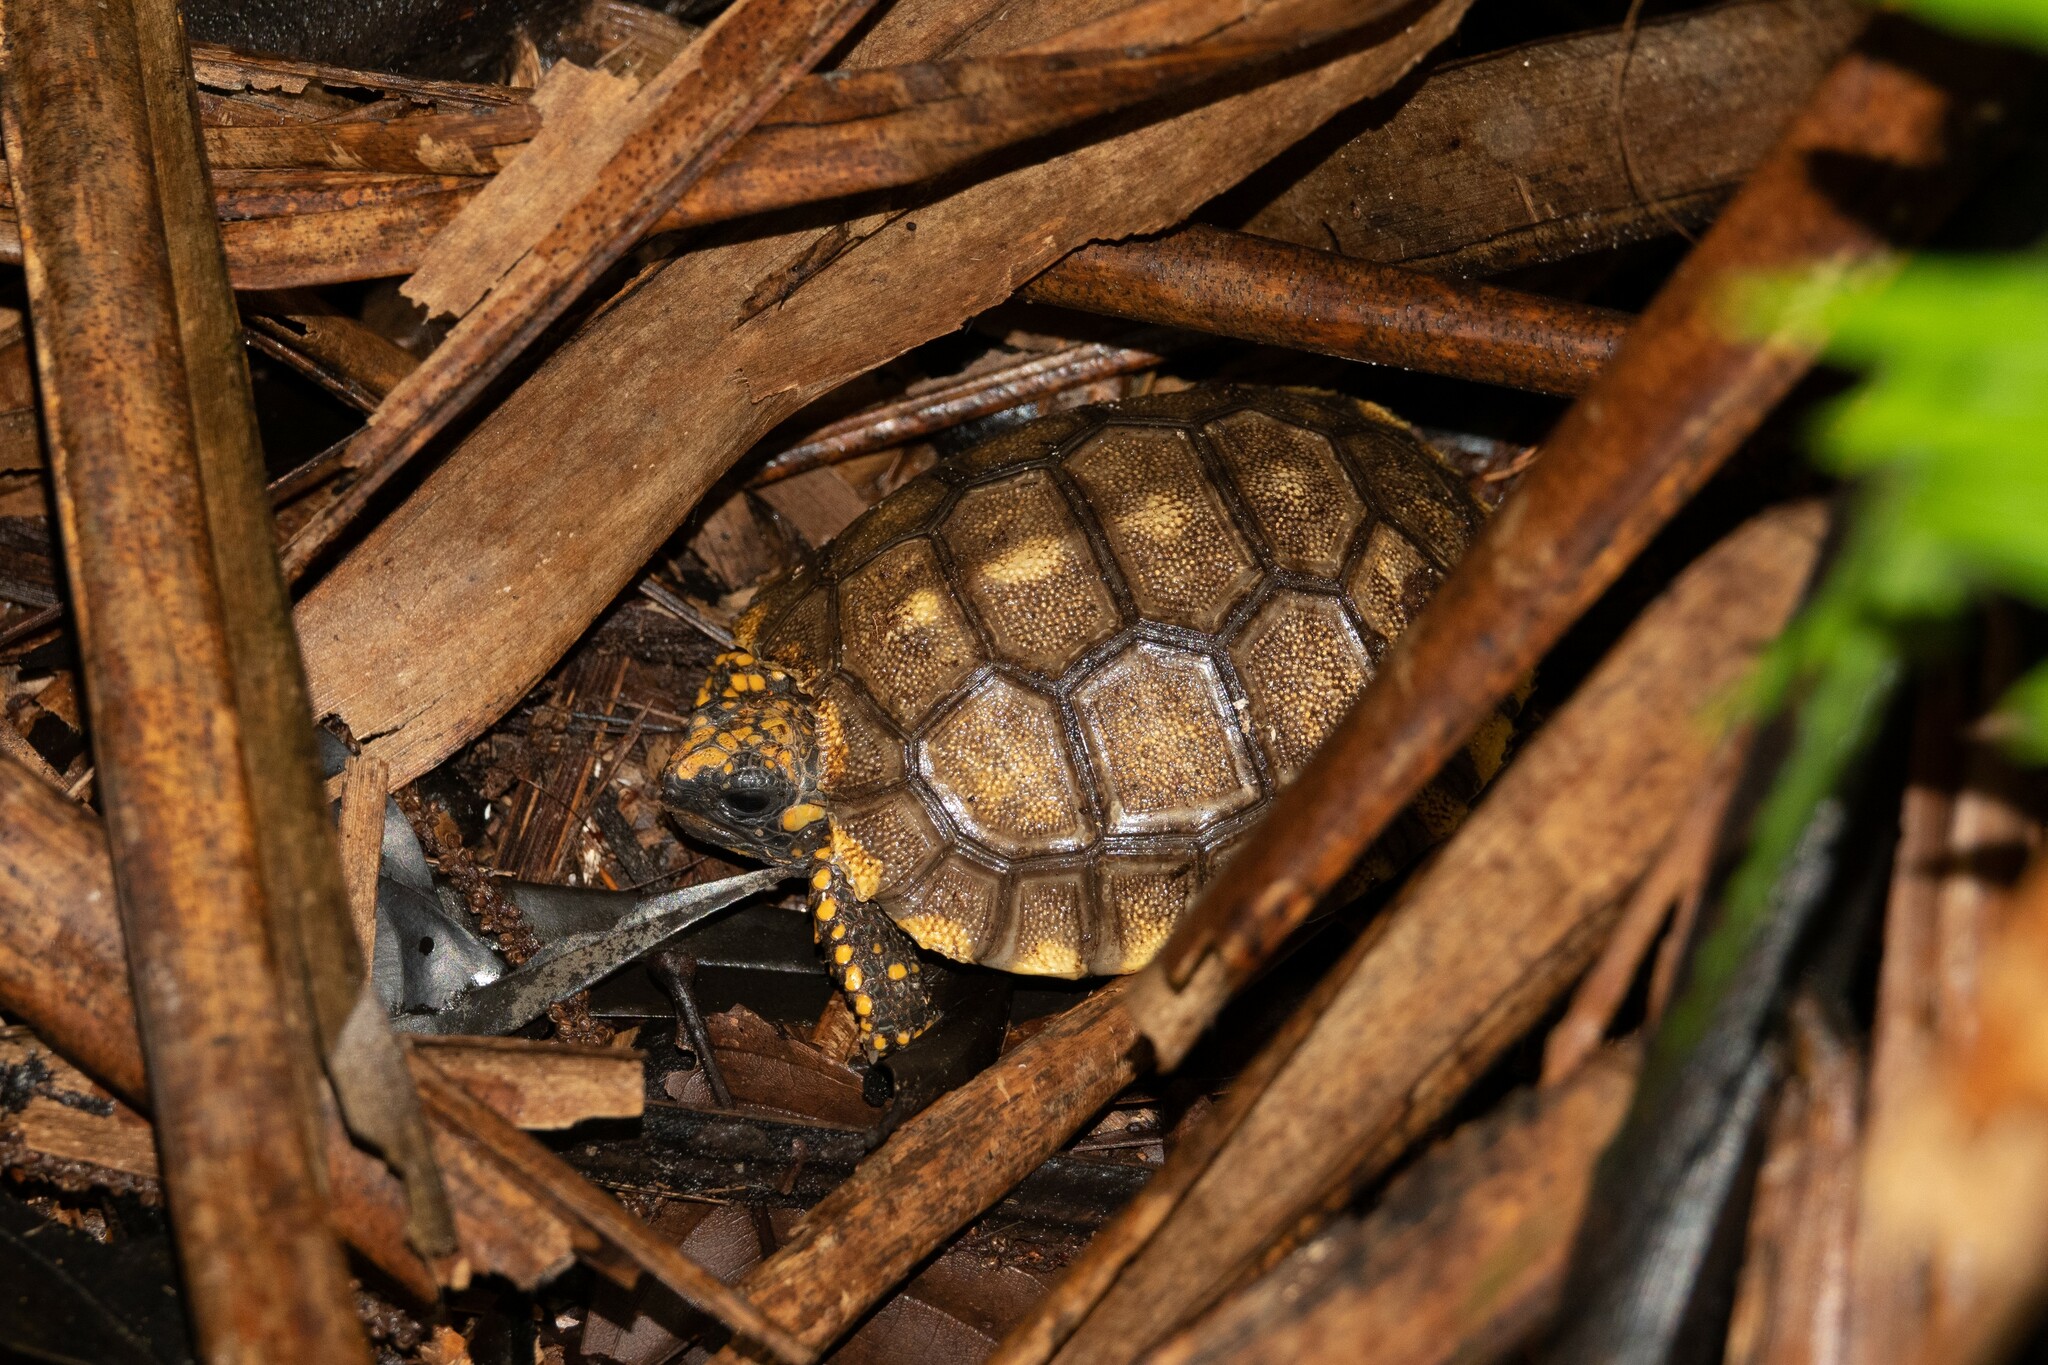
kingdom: Animalia
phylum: Chordata
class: Testudines
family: Testudinidae
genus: Chelonoidis
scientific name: Chelonoidis denticulatus
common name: Yellow-footed tortoise
